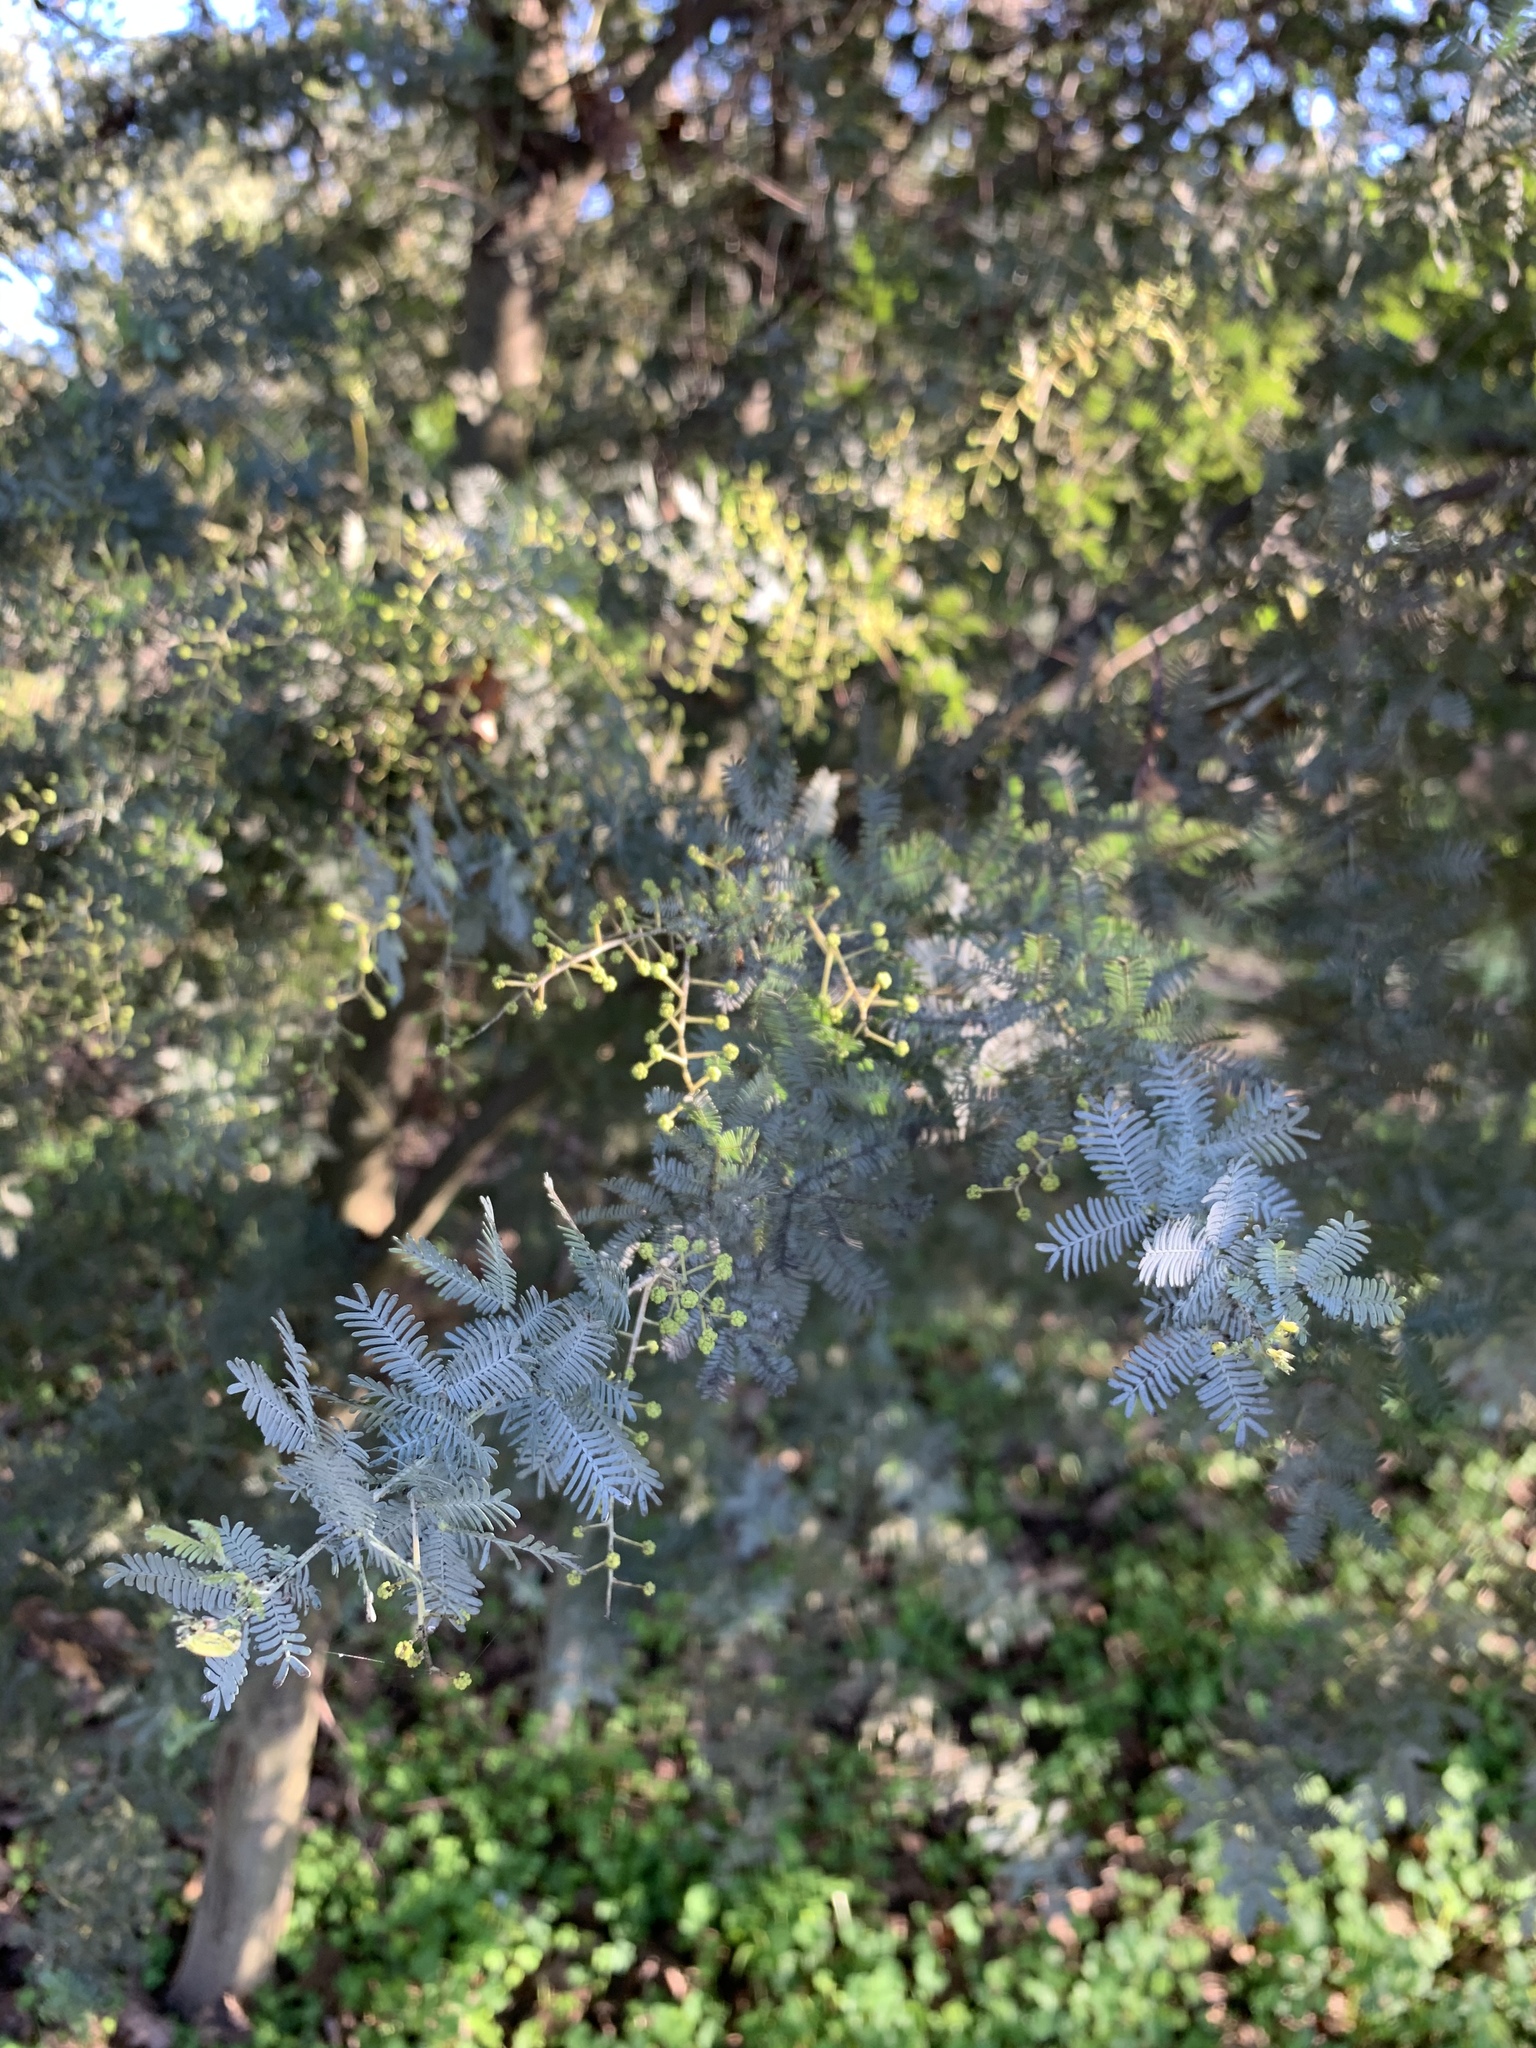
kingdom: Plantae
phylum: Tracheophyta
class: Magnoliopsida
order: Fabales
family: Fabaceae
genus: Acacia
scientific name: Acacia baileyana
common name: Cootamundra wattle
